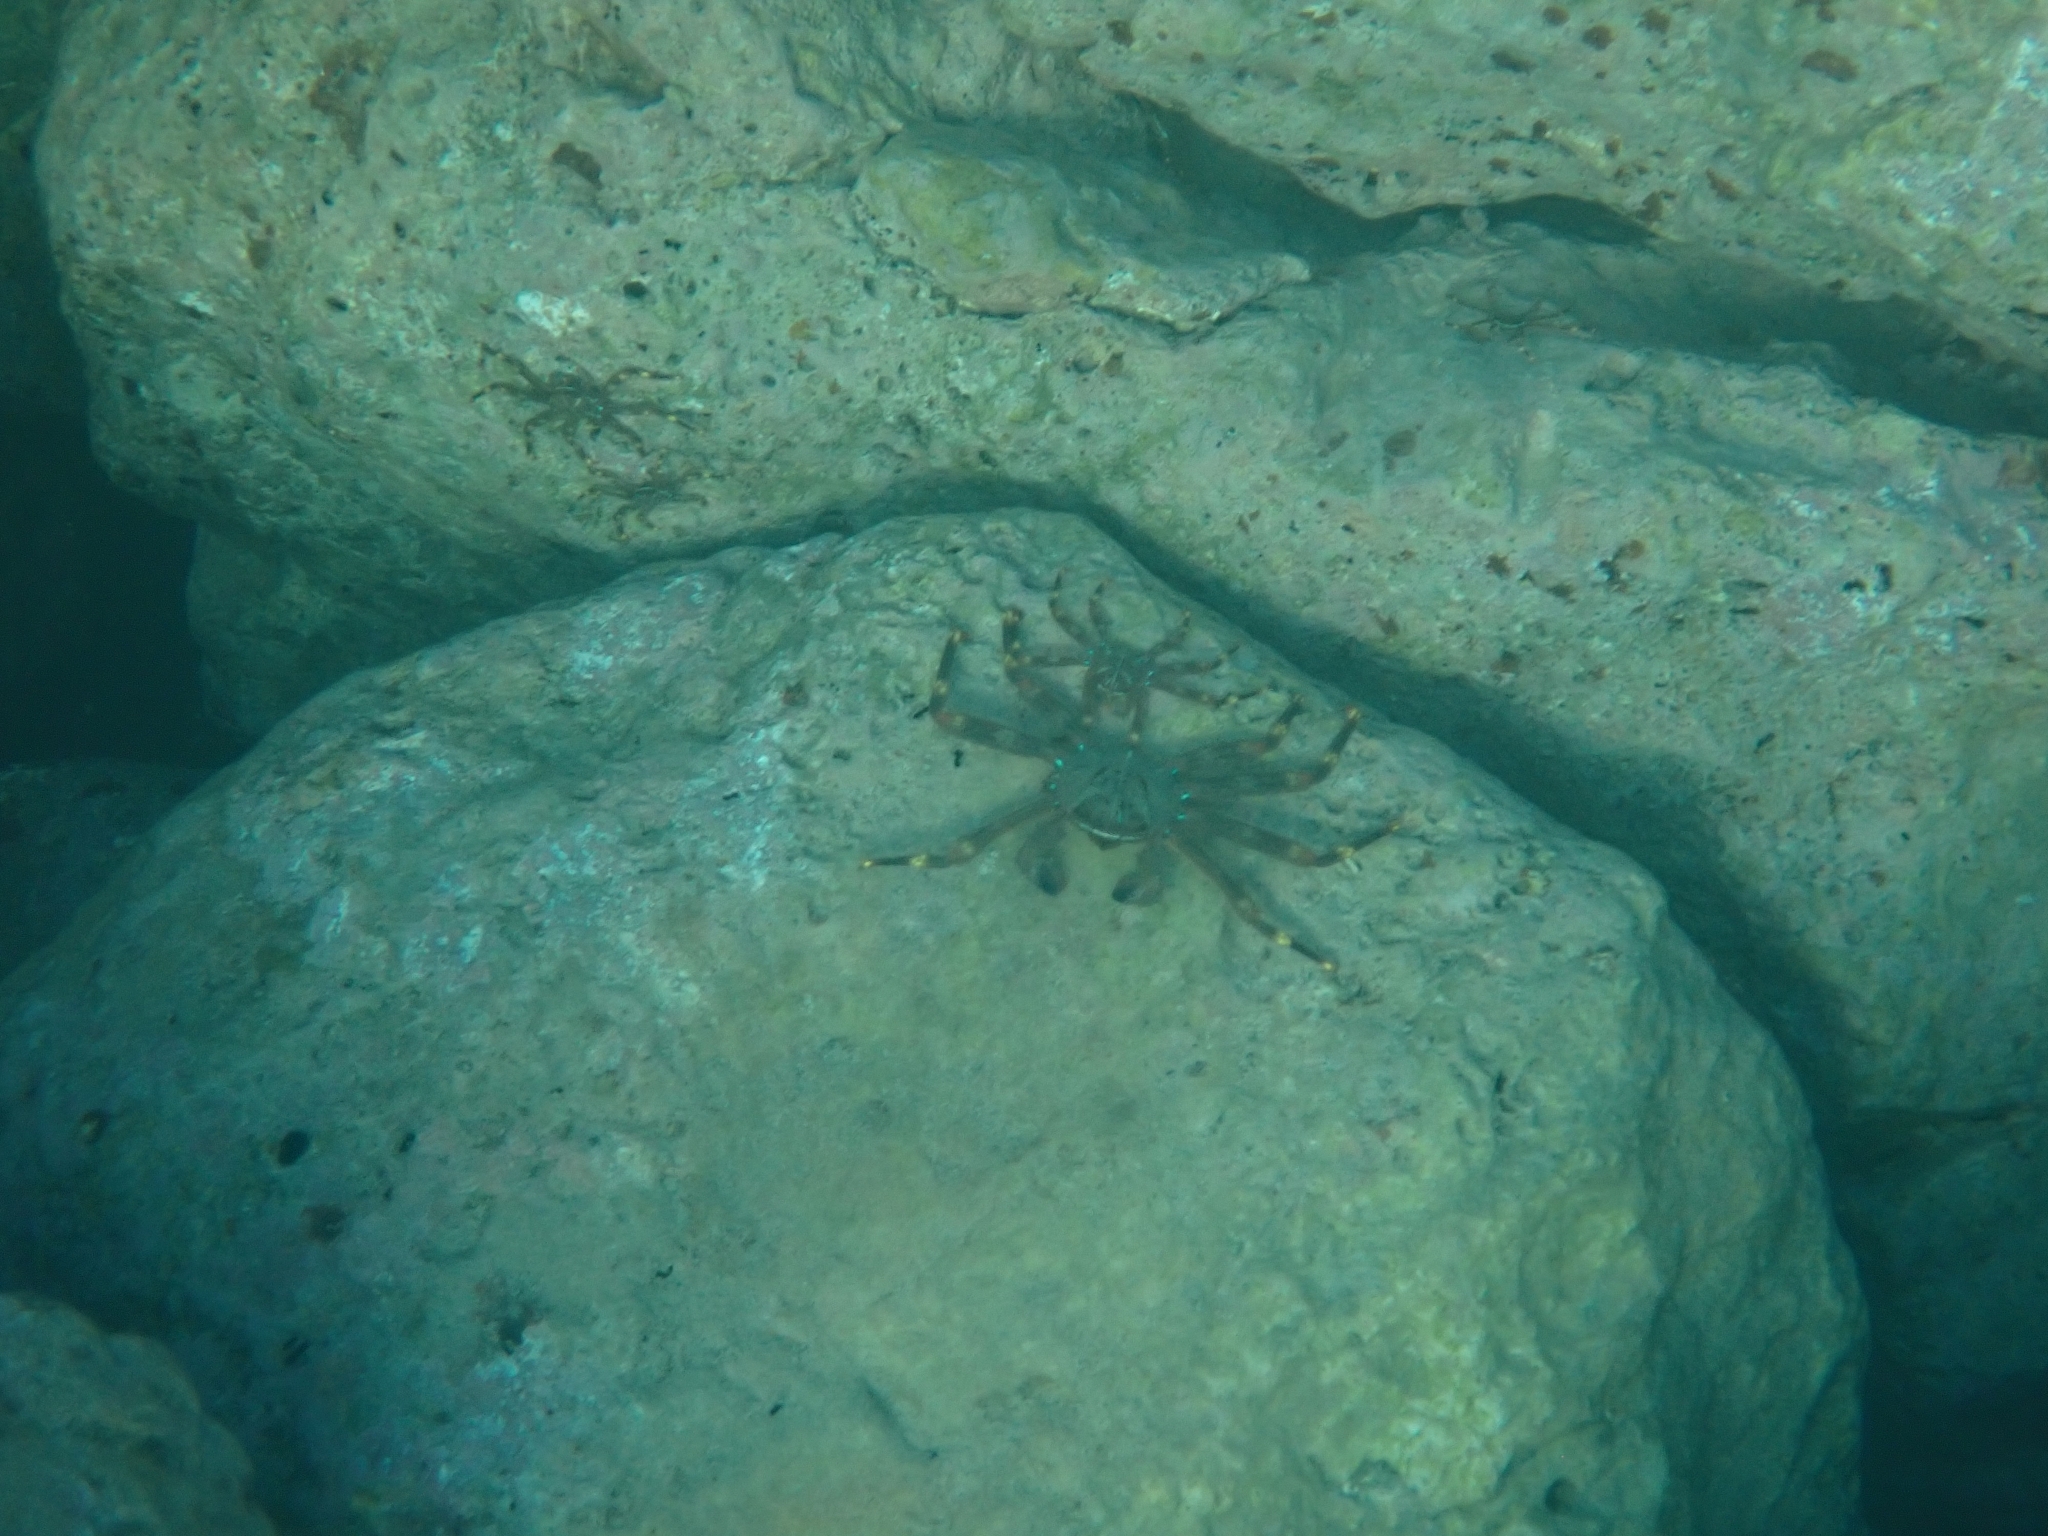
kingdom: Animalia
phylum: Arthropoda
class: Malacostraca
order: Decapoda
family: Percnidae
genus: Percnon
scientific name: Percnon gibbesi
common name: Nimble spray crab
